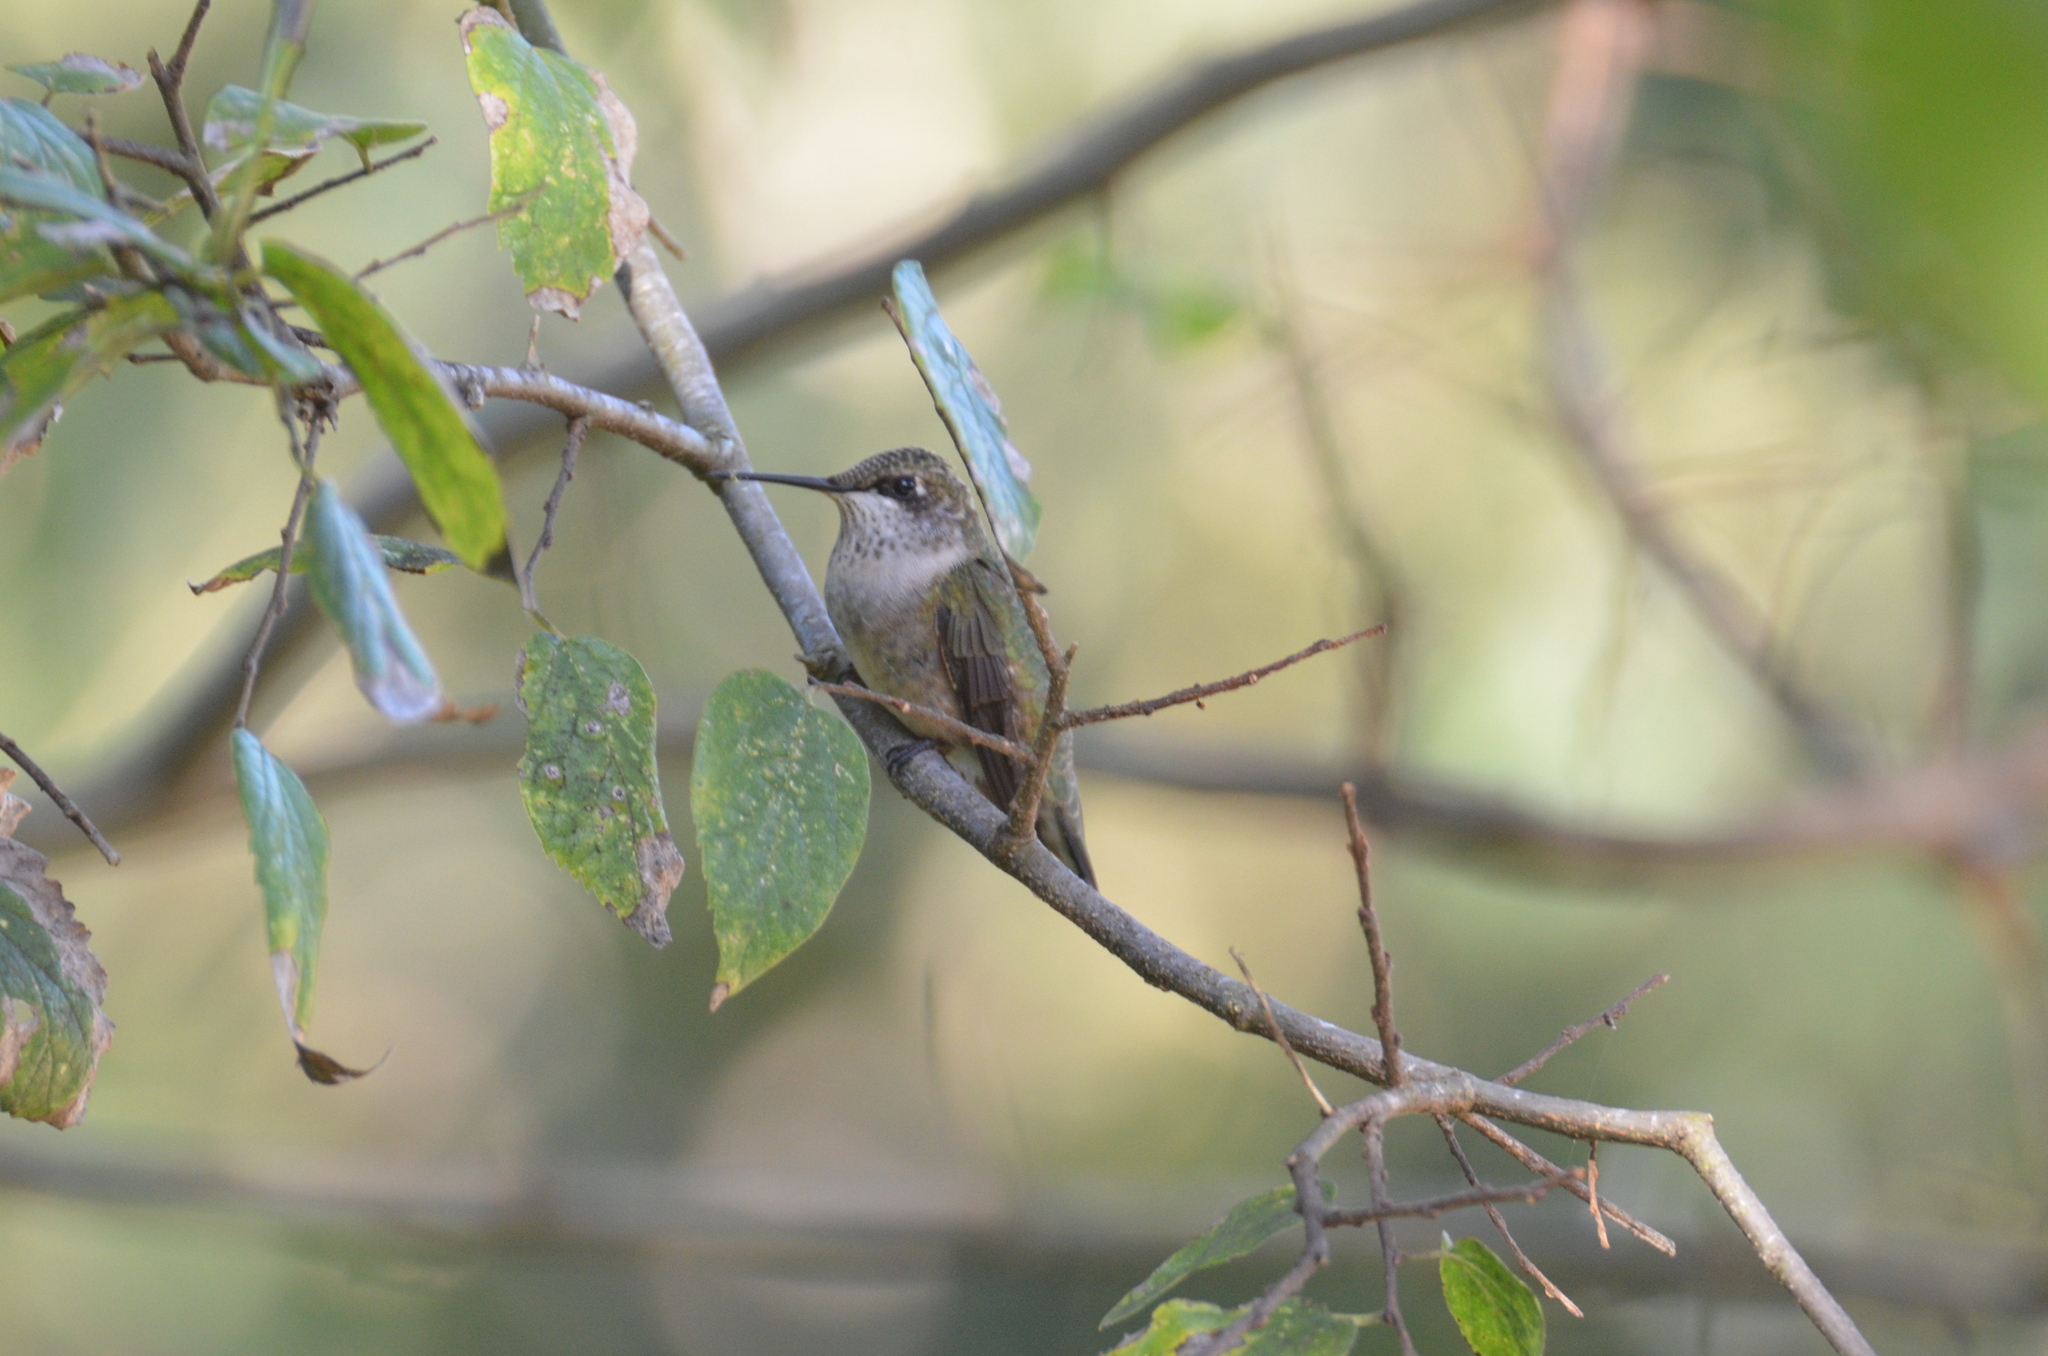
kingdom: Animalia
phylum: Chordata
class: Aves
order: Apodiformes
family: Trochilidae
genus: Archilochus
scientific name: Archilochus colubris
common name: Ruby-throated hummingbird
